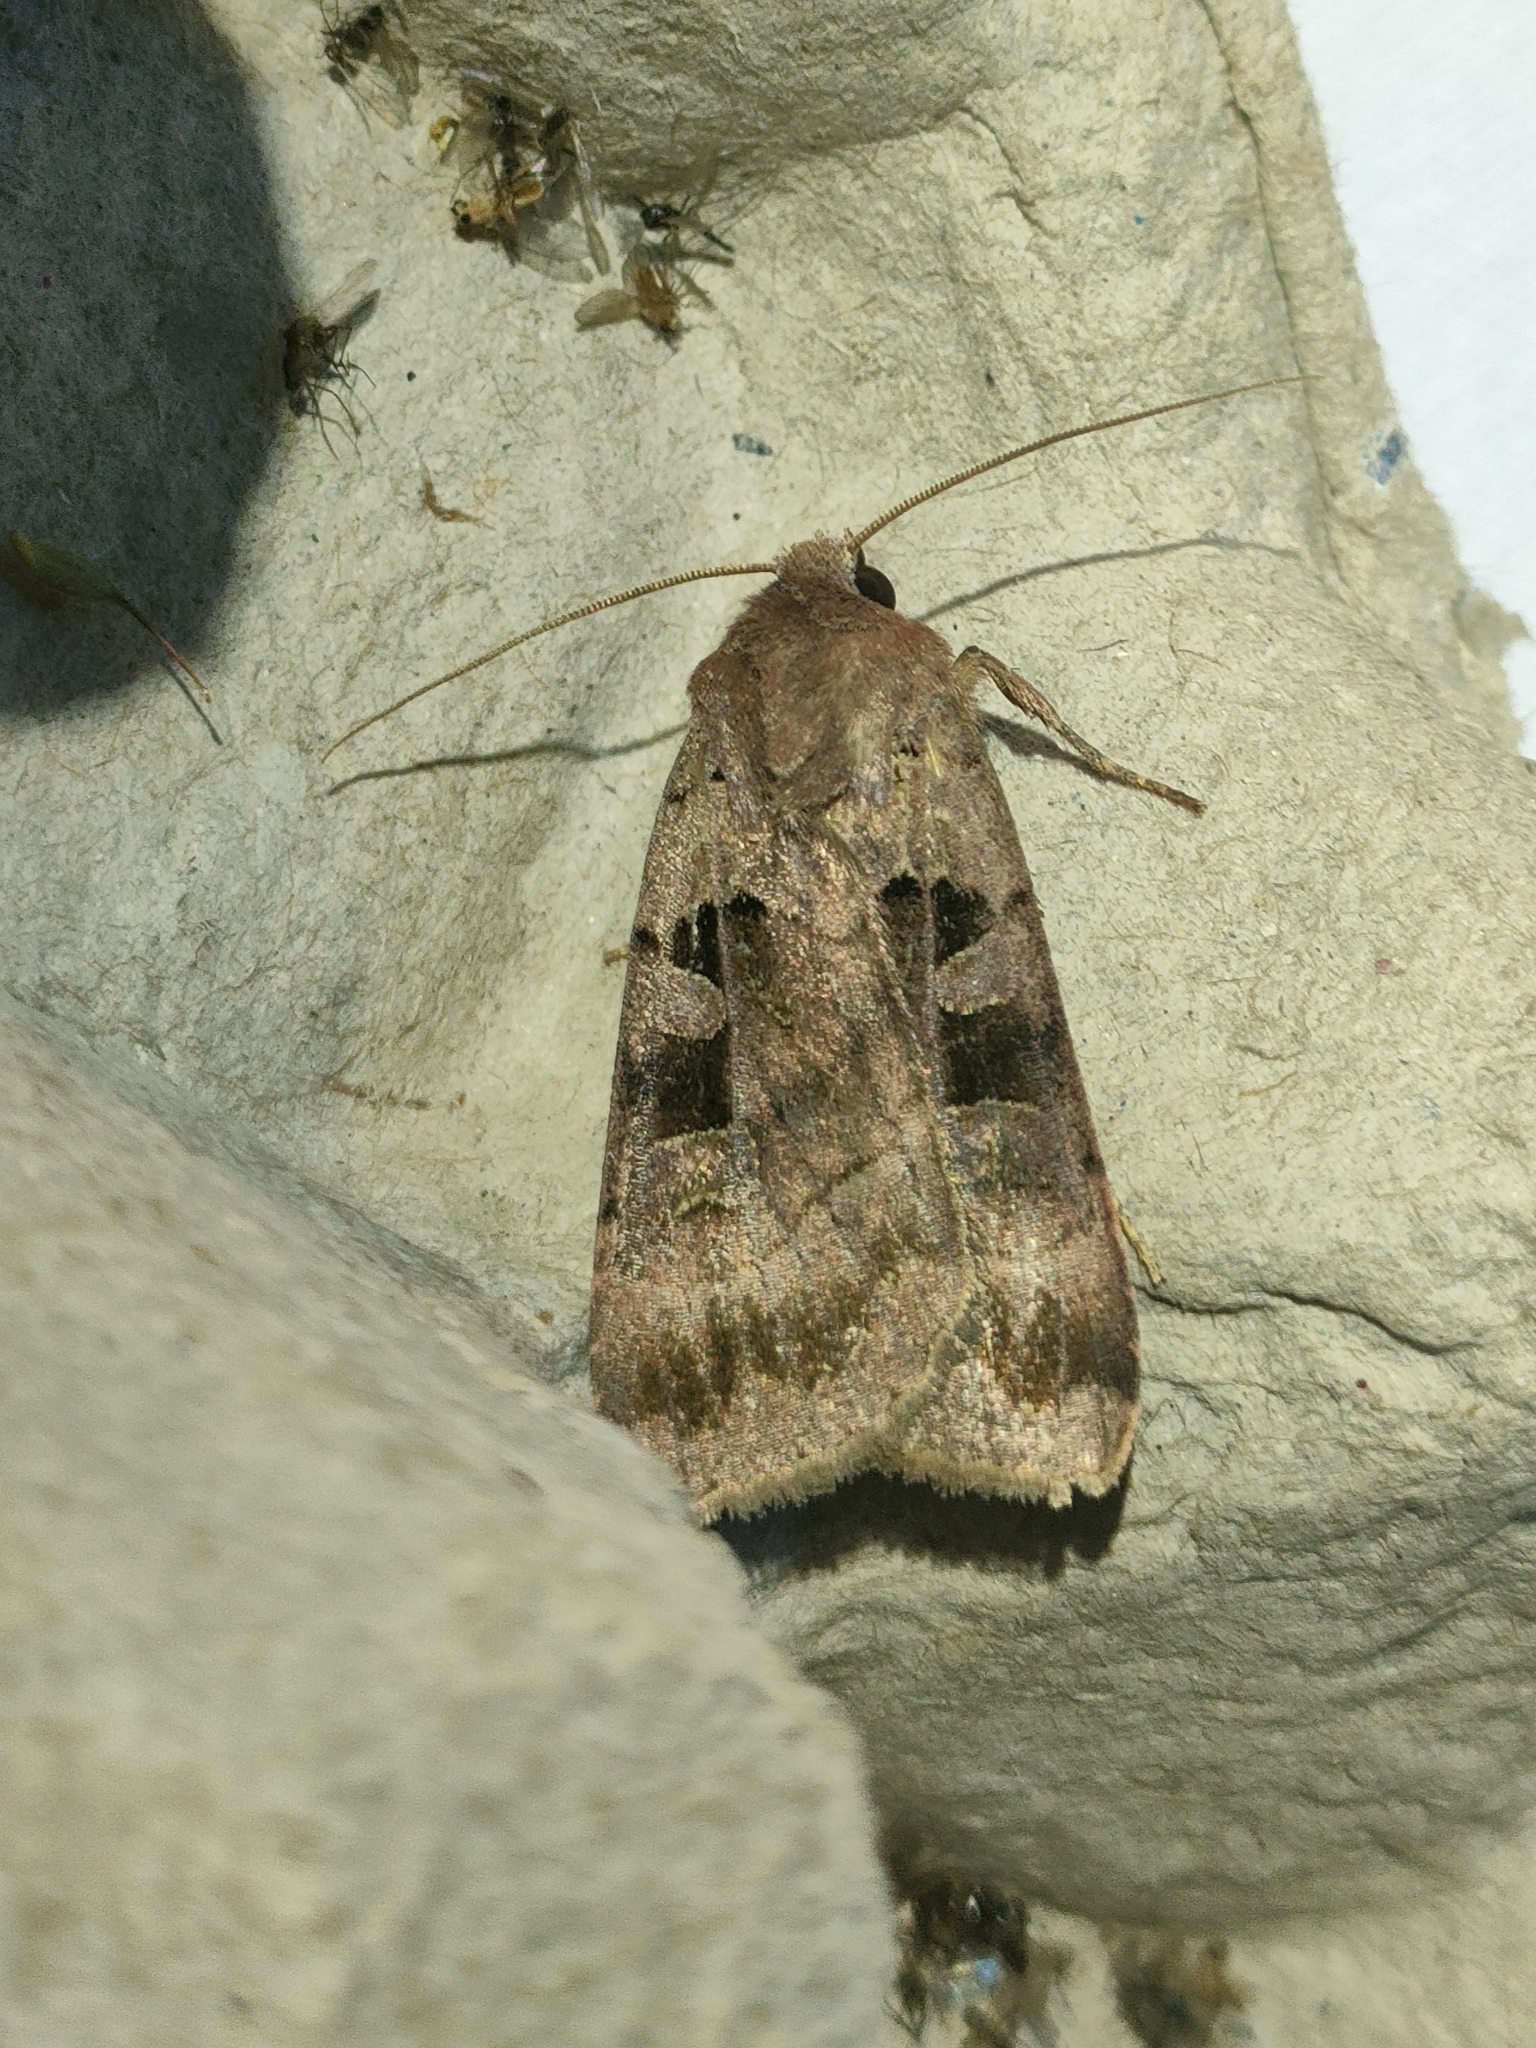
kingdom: Animalia
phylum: Arthropoda
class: Insecta
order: Lepidoptera
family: Noctuidae
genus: Xestia
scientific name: Xestia stigmatica
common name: Square-spotted clay
